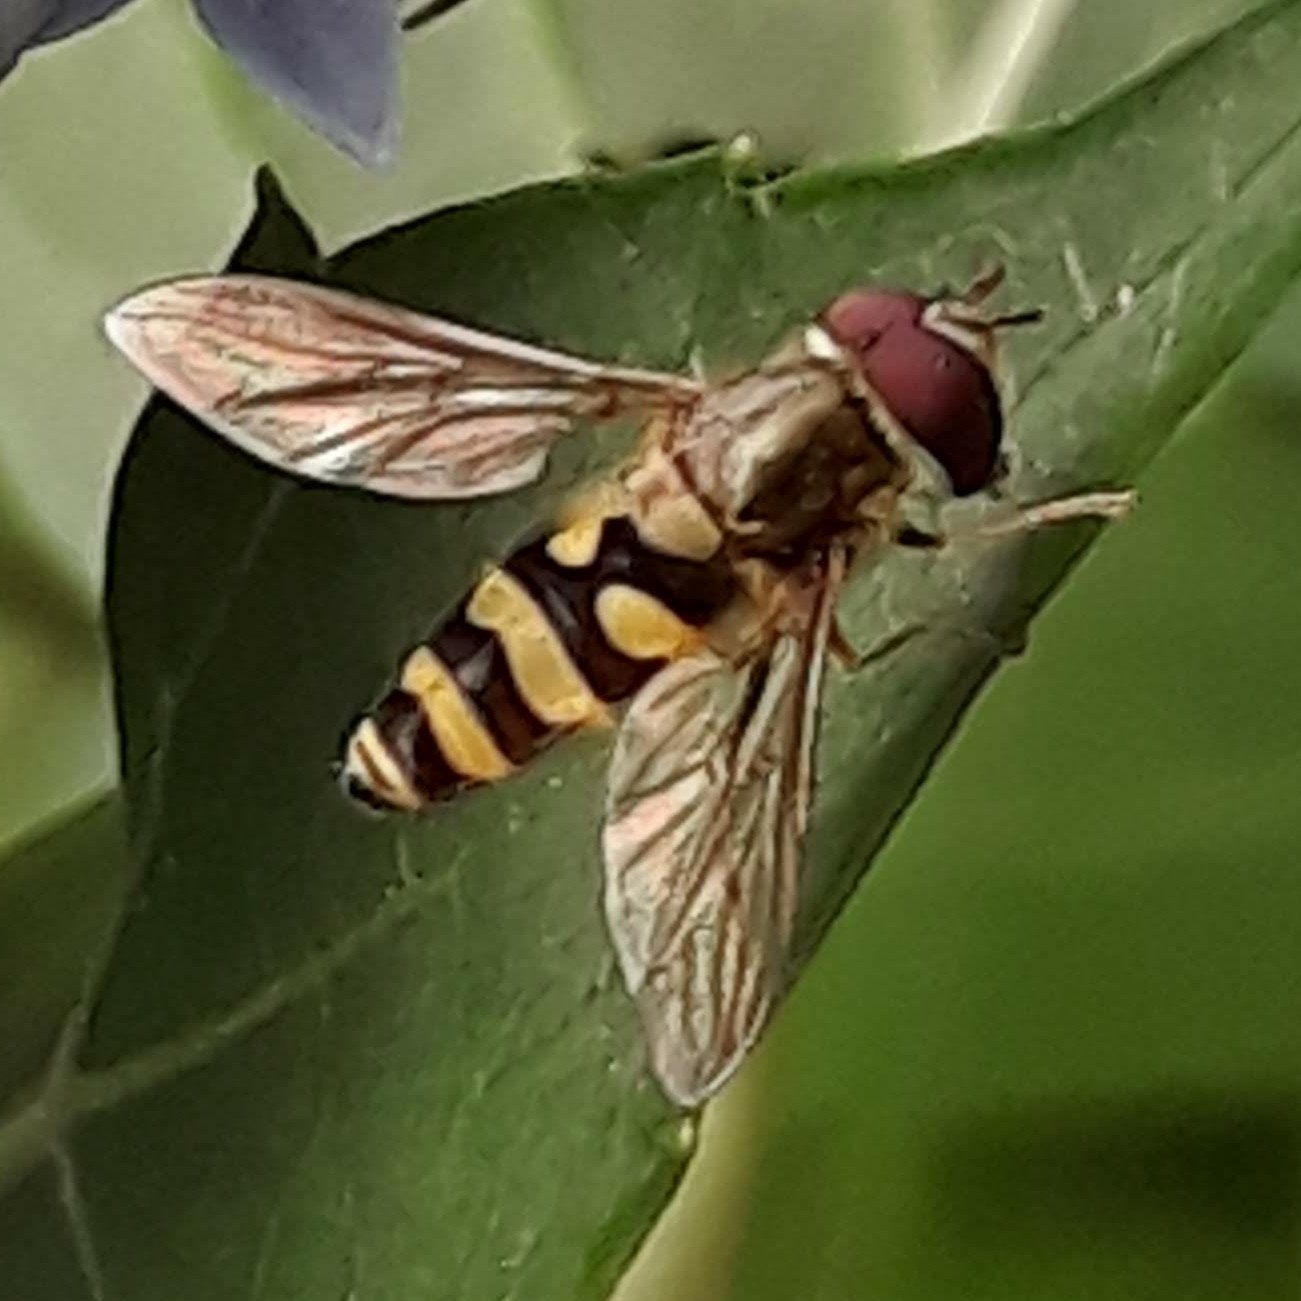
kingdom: Animalia
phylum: Arthropoda
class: Insecta
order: Diptera
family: Syrphidae
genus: Syrphus
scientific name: Syrphus
